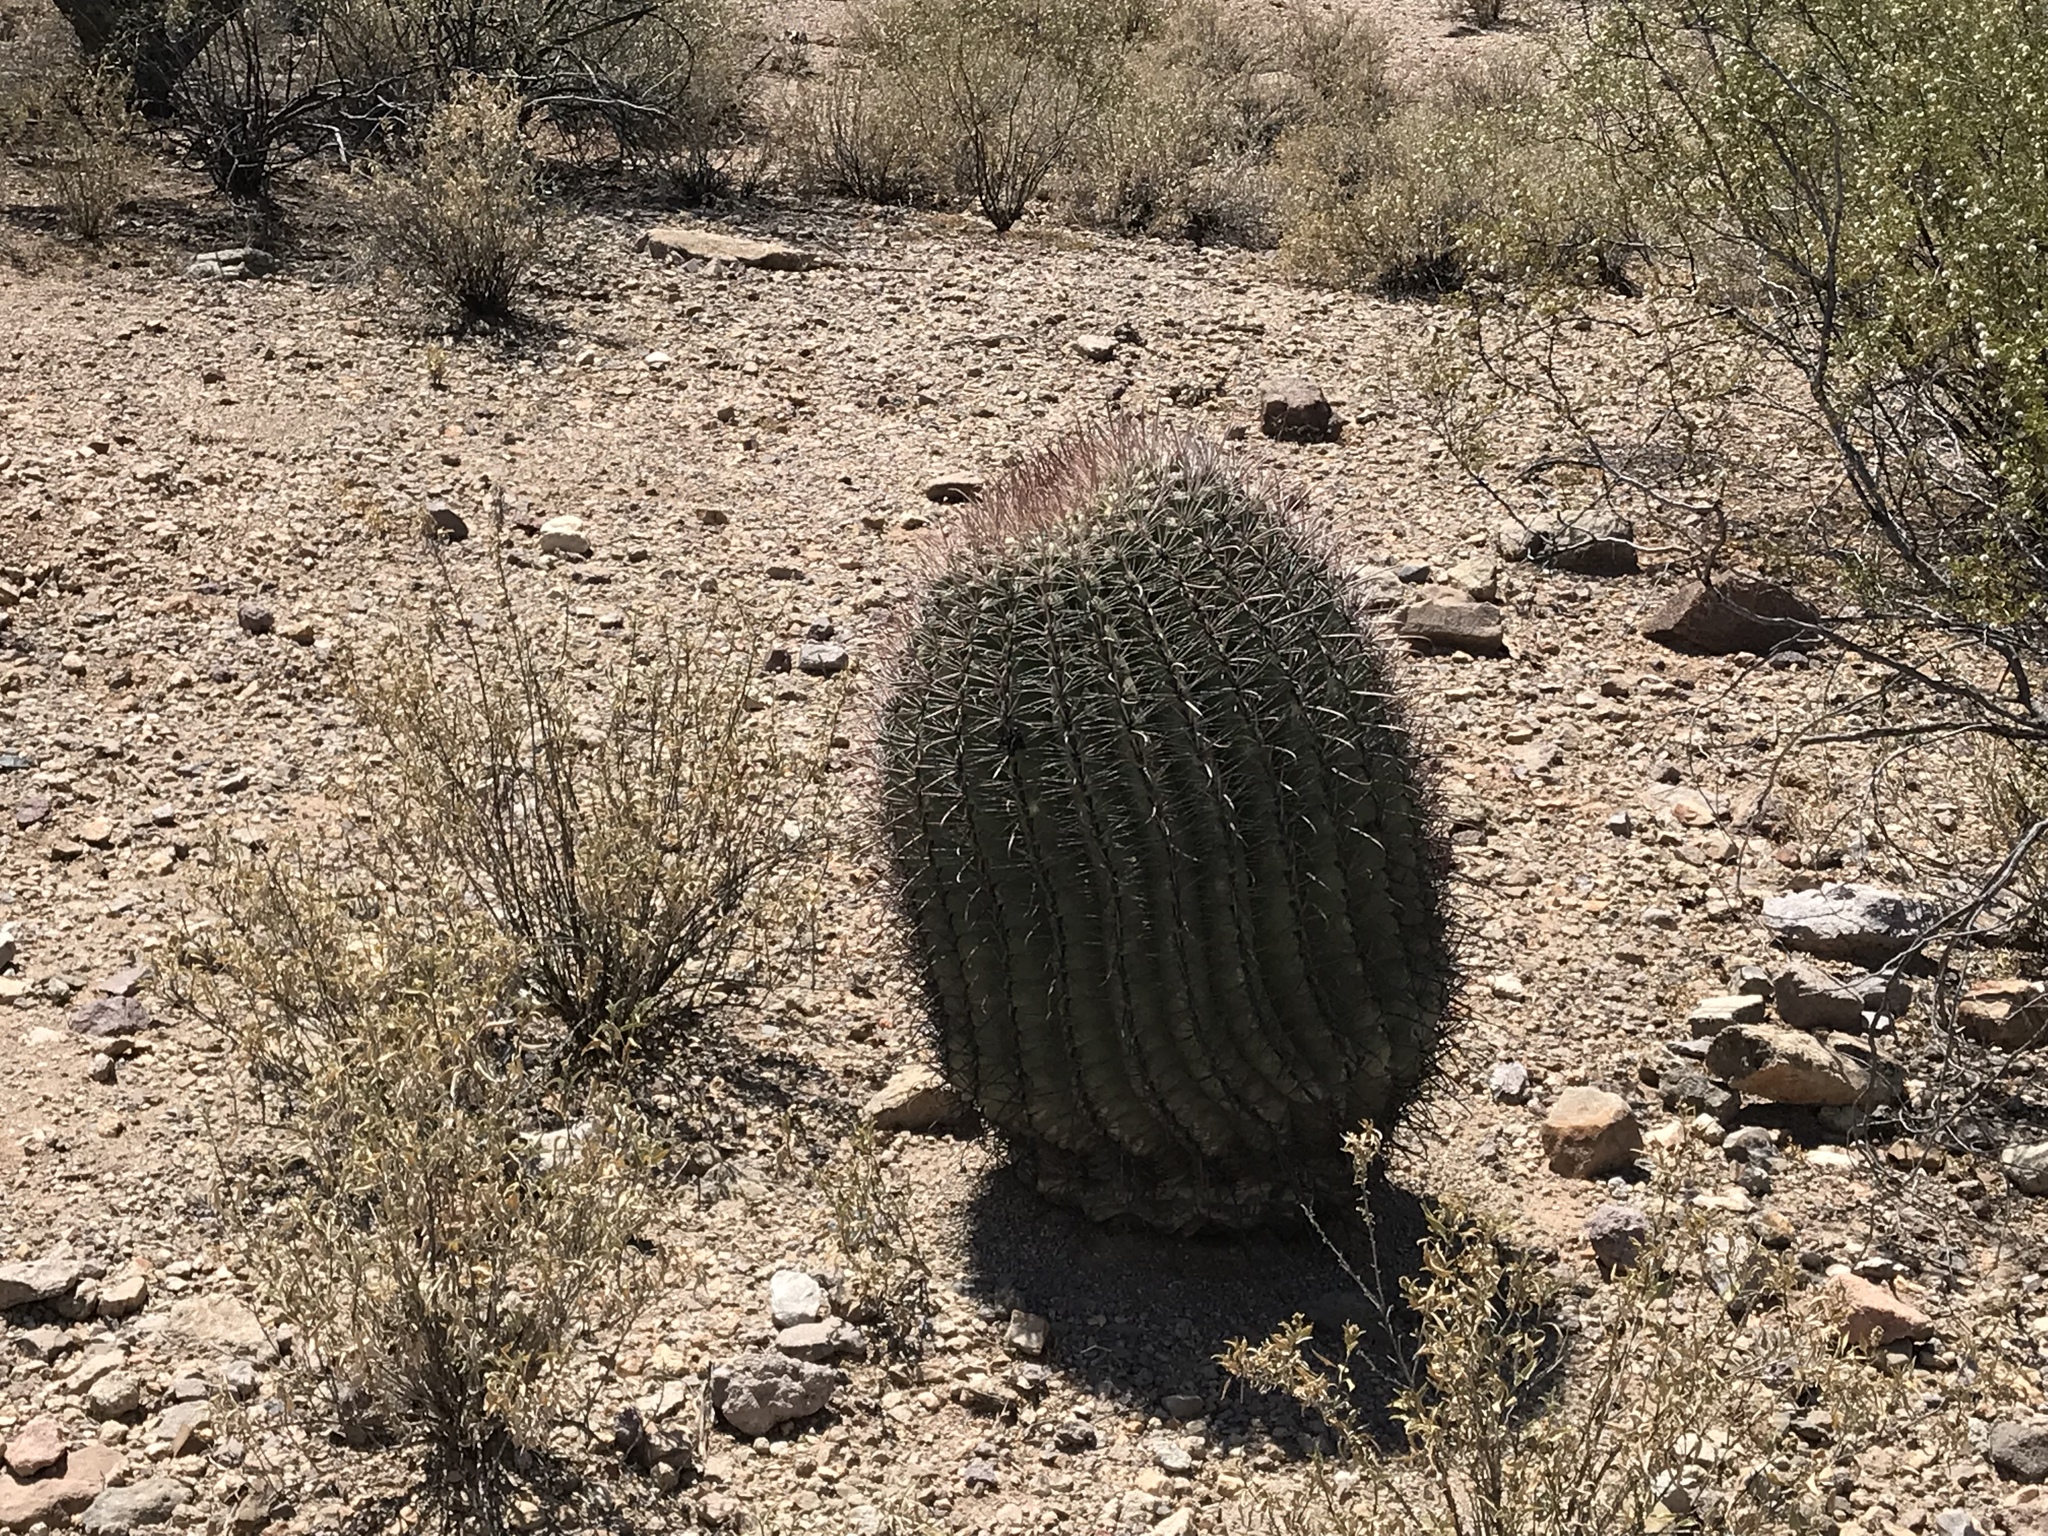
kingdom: Plantae
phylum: Tracheophyta
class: Magnoliopsida
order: Caryophyllales
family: Cactaceae
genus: Ferocactus
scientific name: Ferocactus wislizeni
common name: Candy barrel cactus
